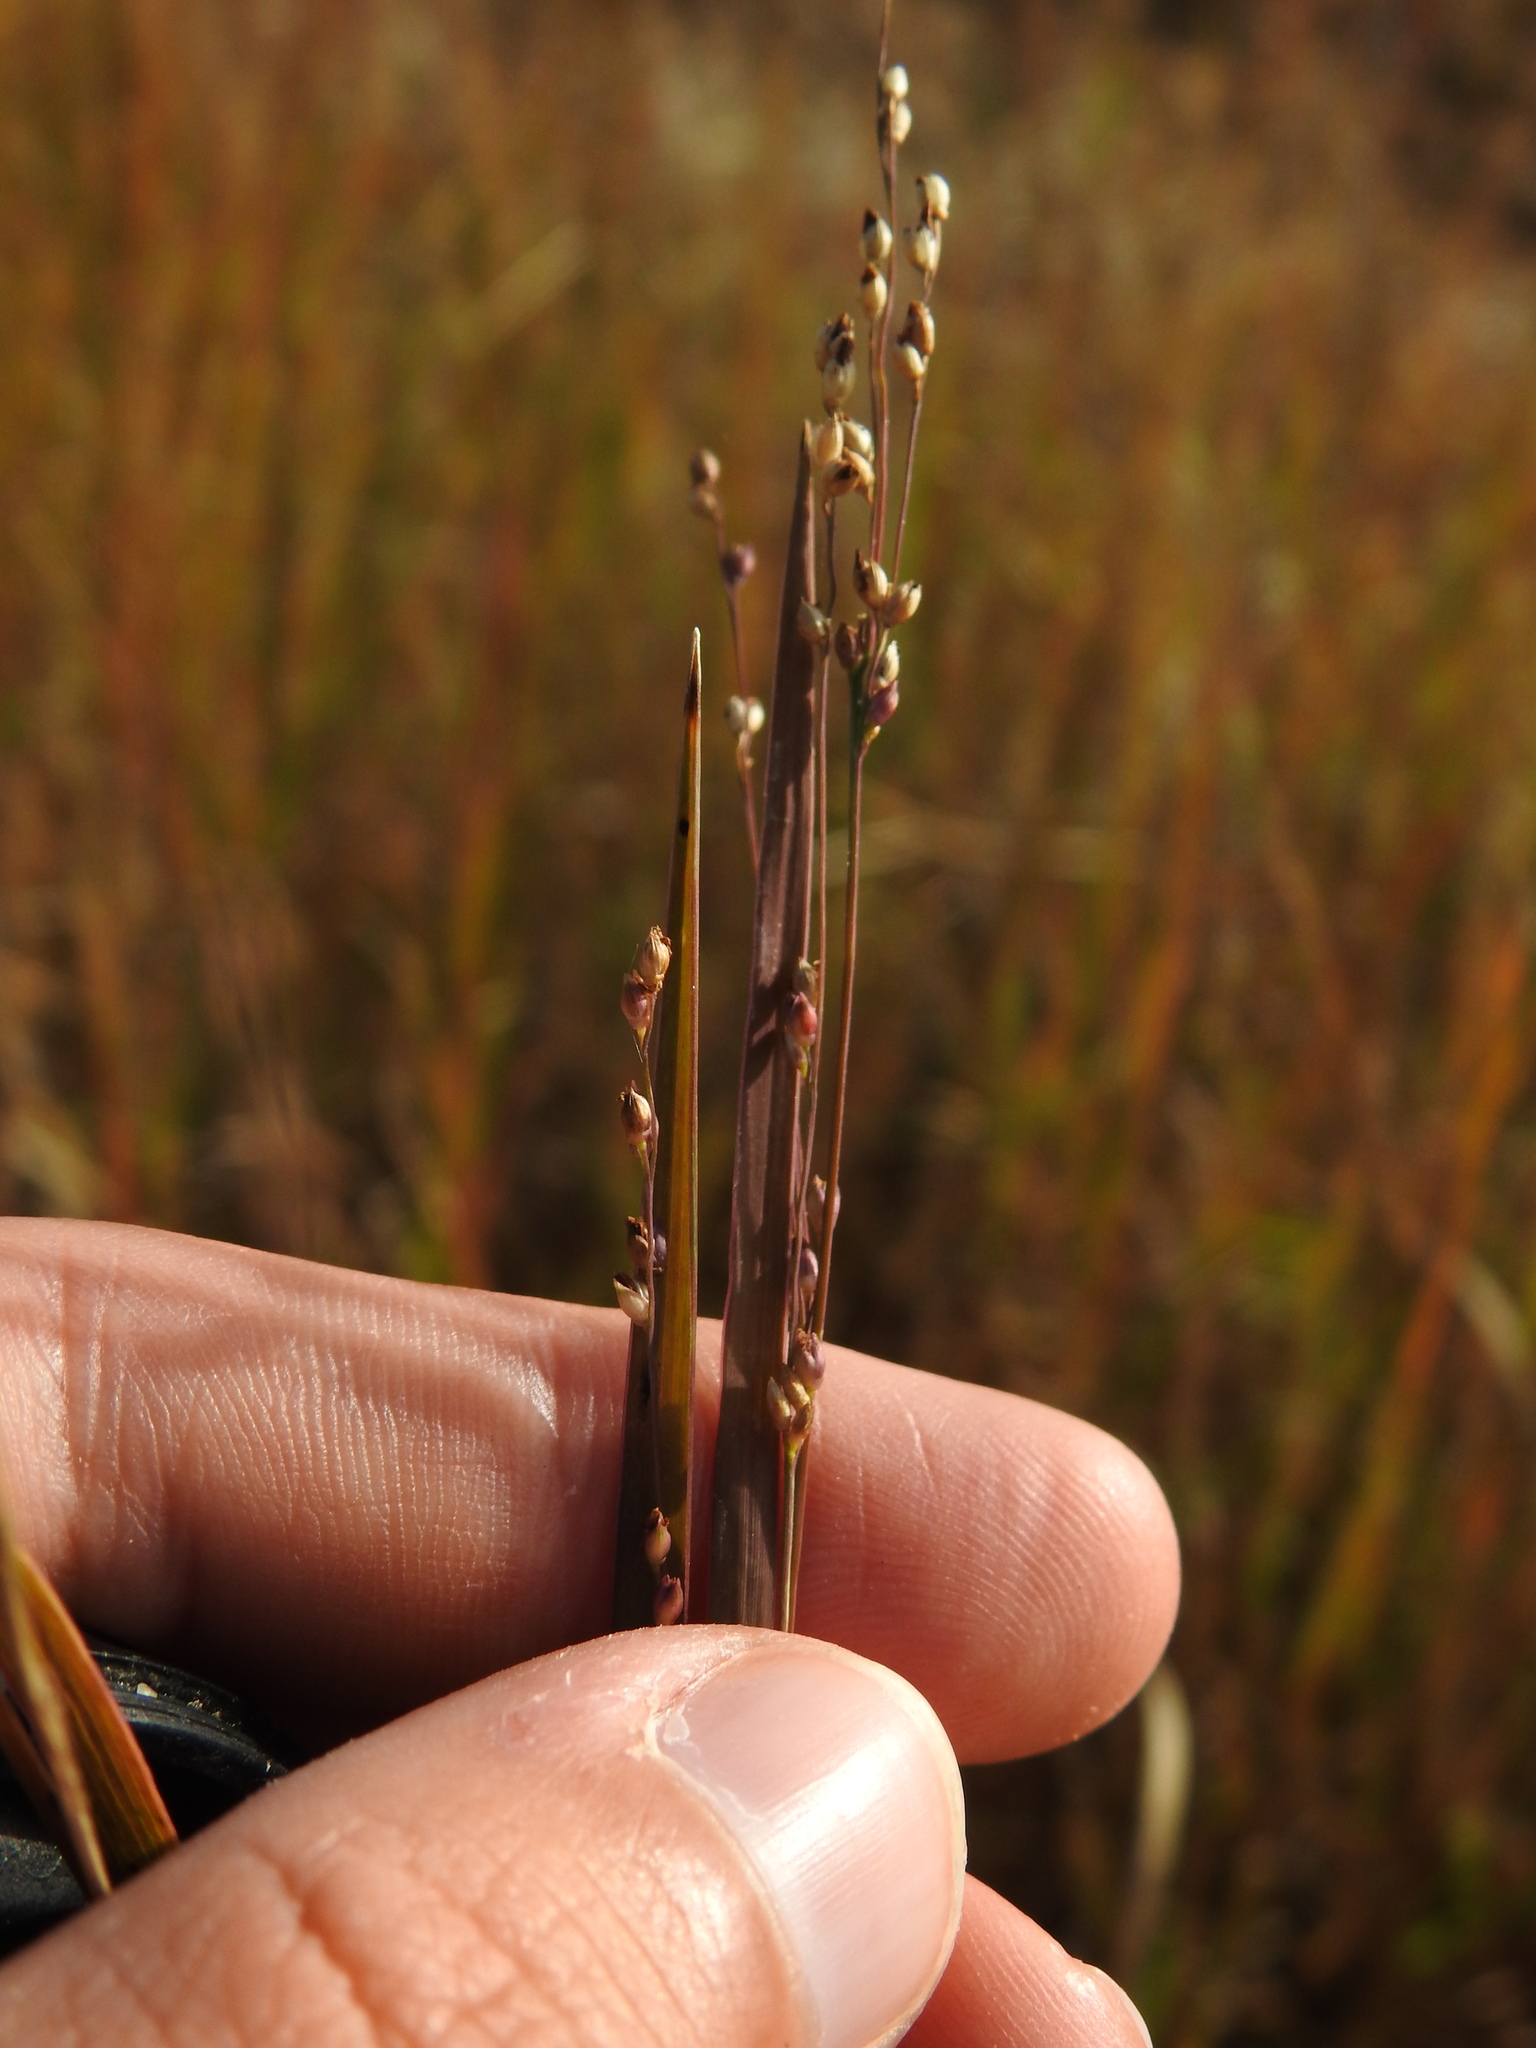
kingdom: Plantae
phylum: Tracheophyta
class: Liliopsida
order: Poales
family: Poaceae
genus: Panicum
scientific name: Panicum repens
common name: Torpedo grass
